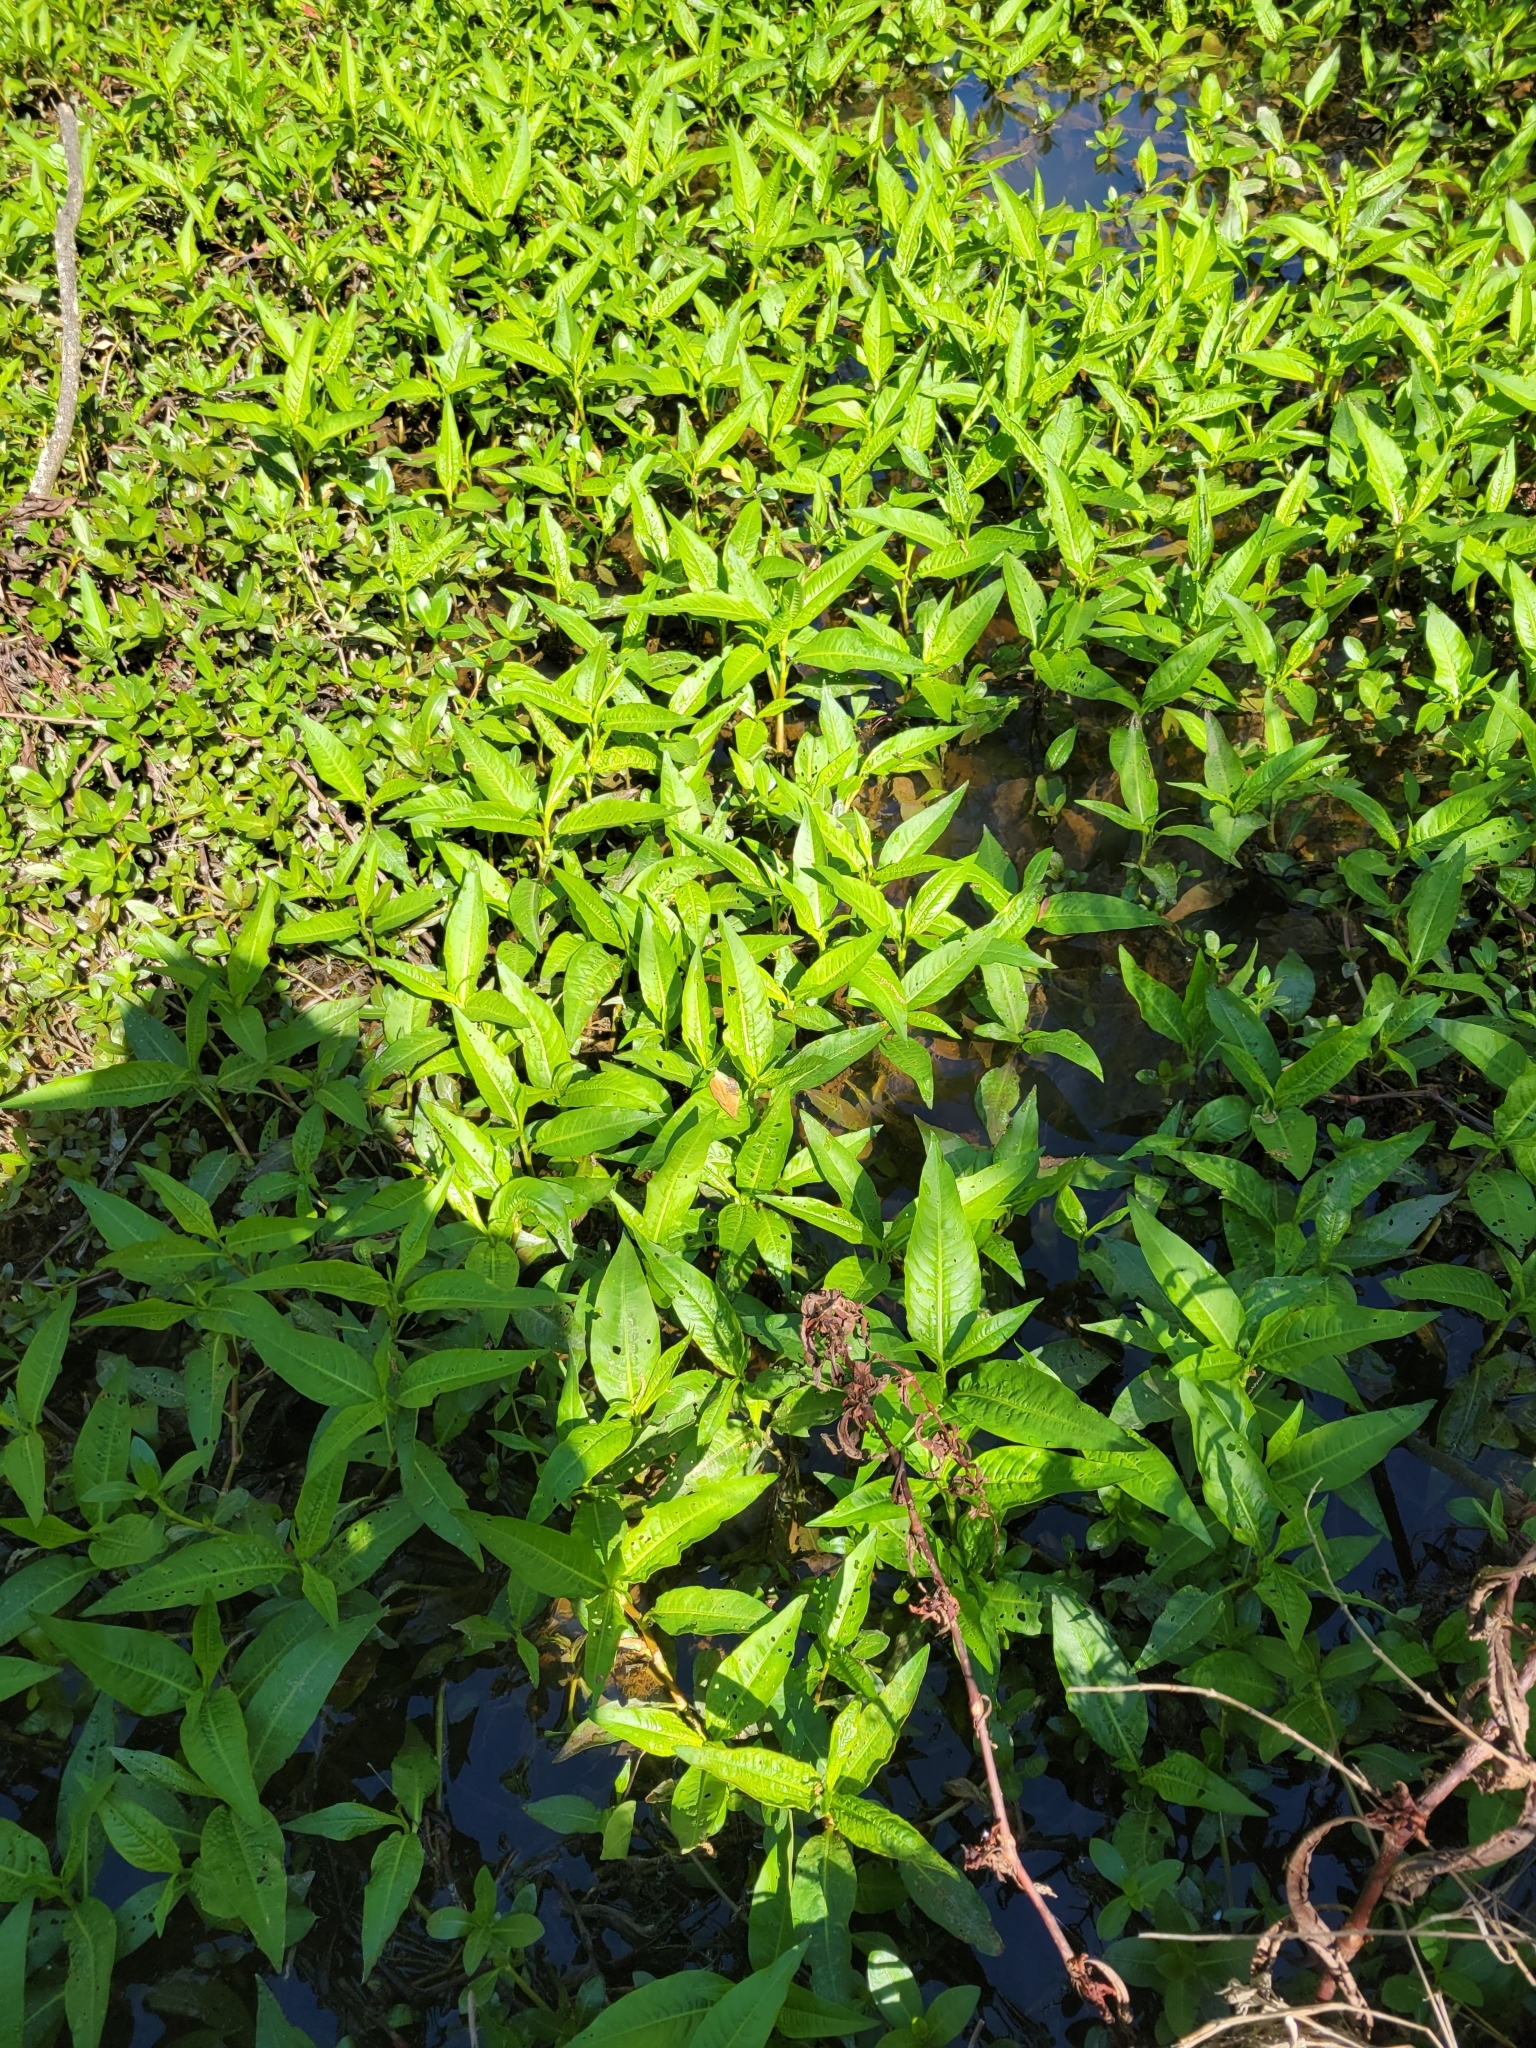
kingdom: Plantae
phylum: Tracheophyta
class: Magnoliopsida
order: Saxifragales
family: Penthoraceae
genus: Penthorum
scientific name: Penthorum sedoides
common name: Ditch stonecrop
